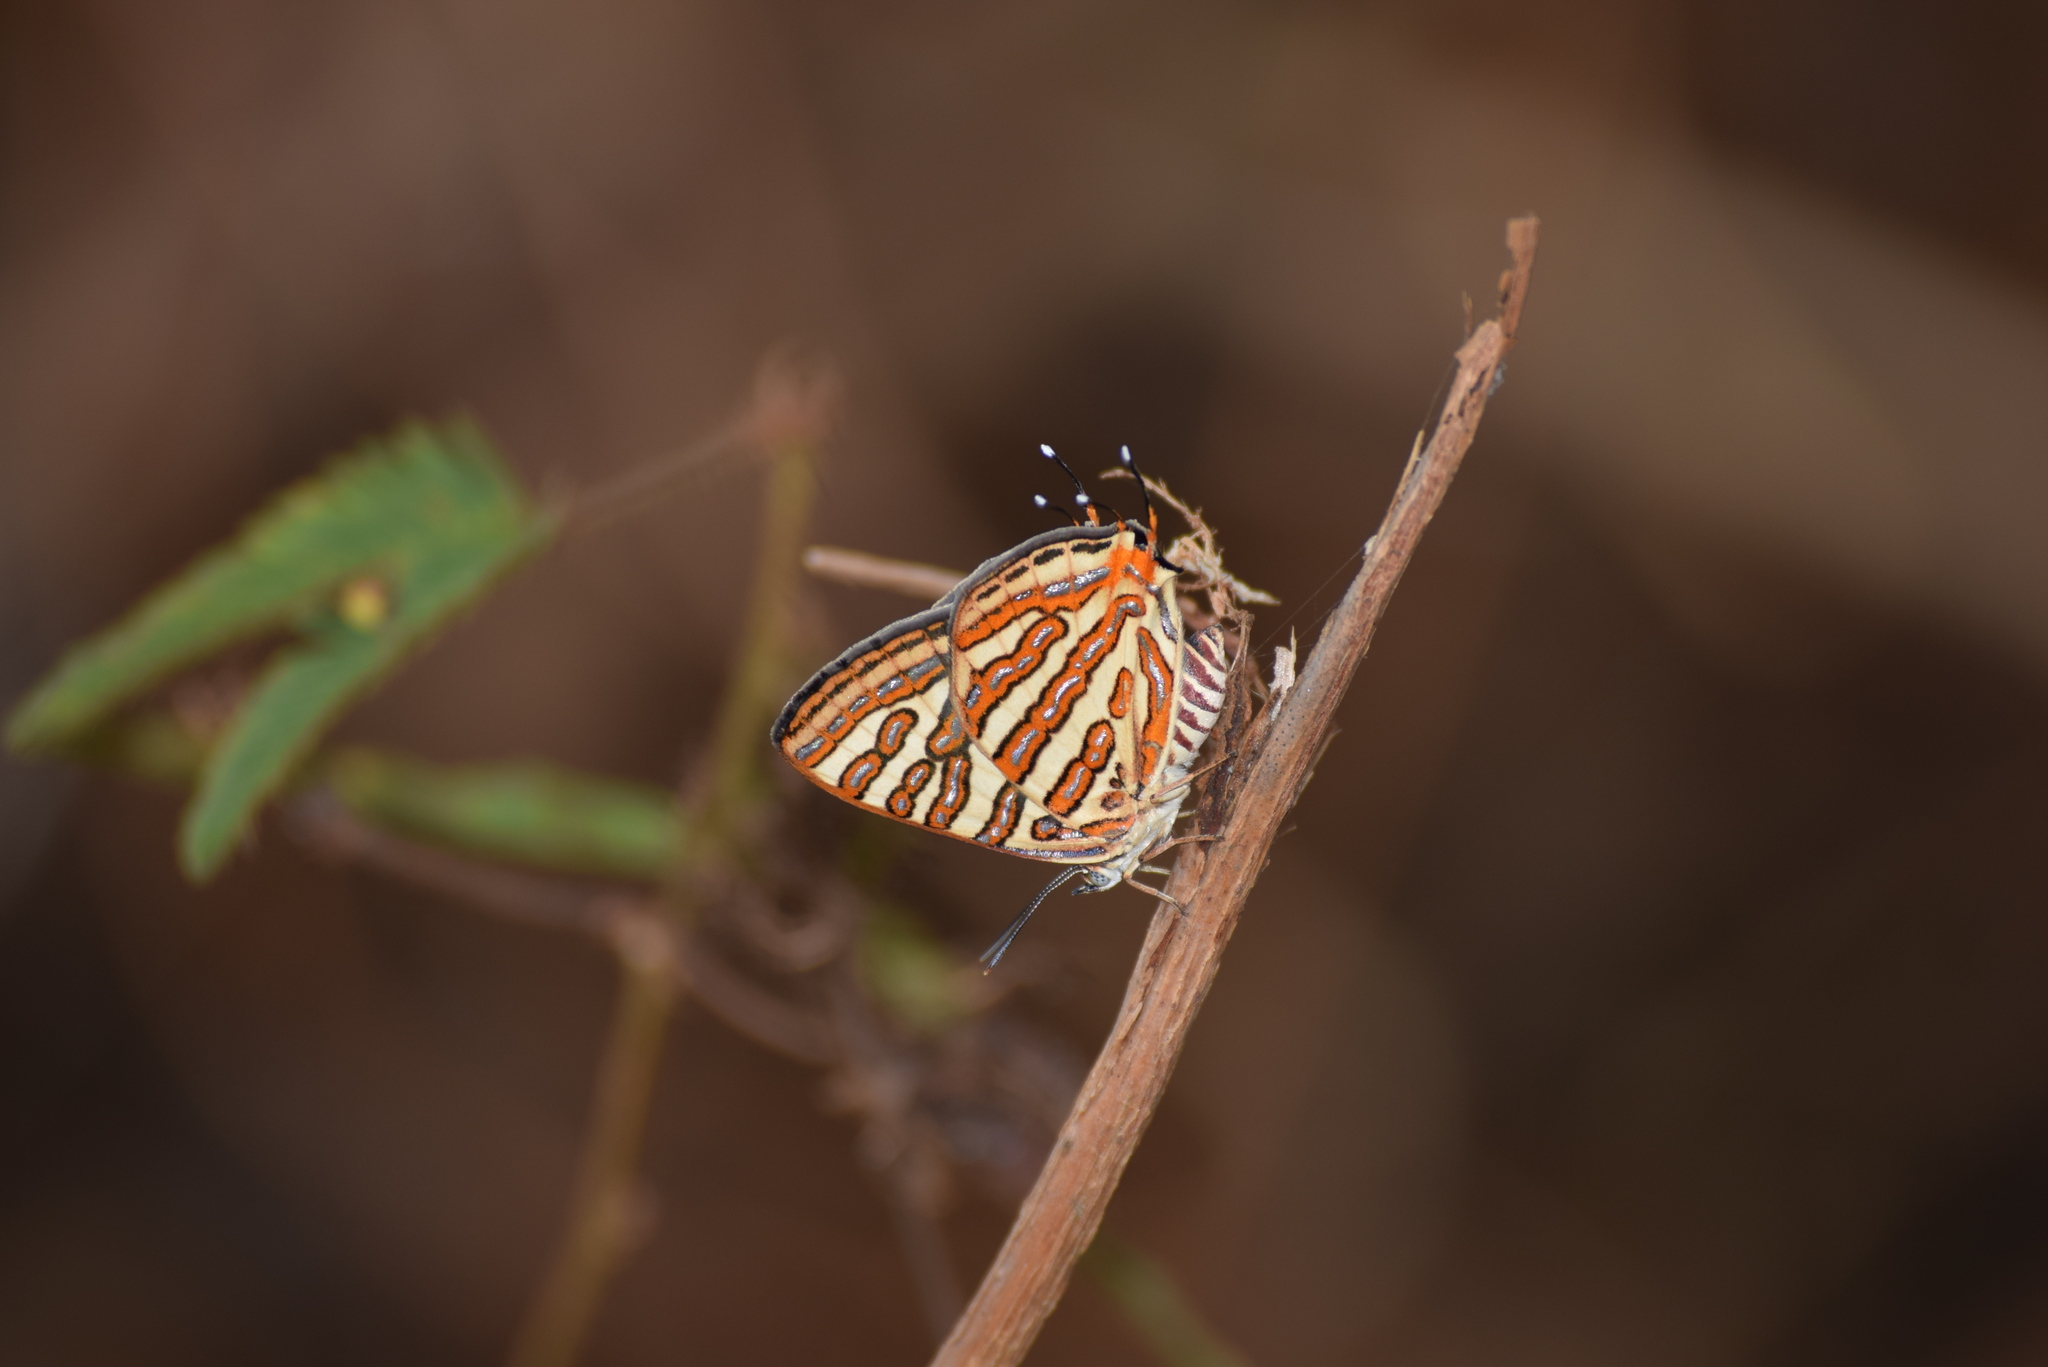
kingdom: Animalia
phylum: Arthropoda
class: Insecta
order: Lepidoptera
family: Lycaenidae
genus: Cigaritis
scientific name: Cigaritis vulcanus
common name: Common silverline
